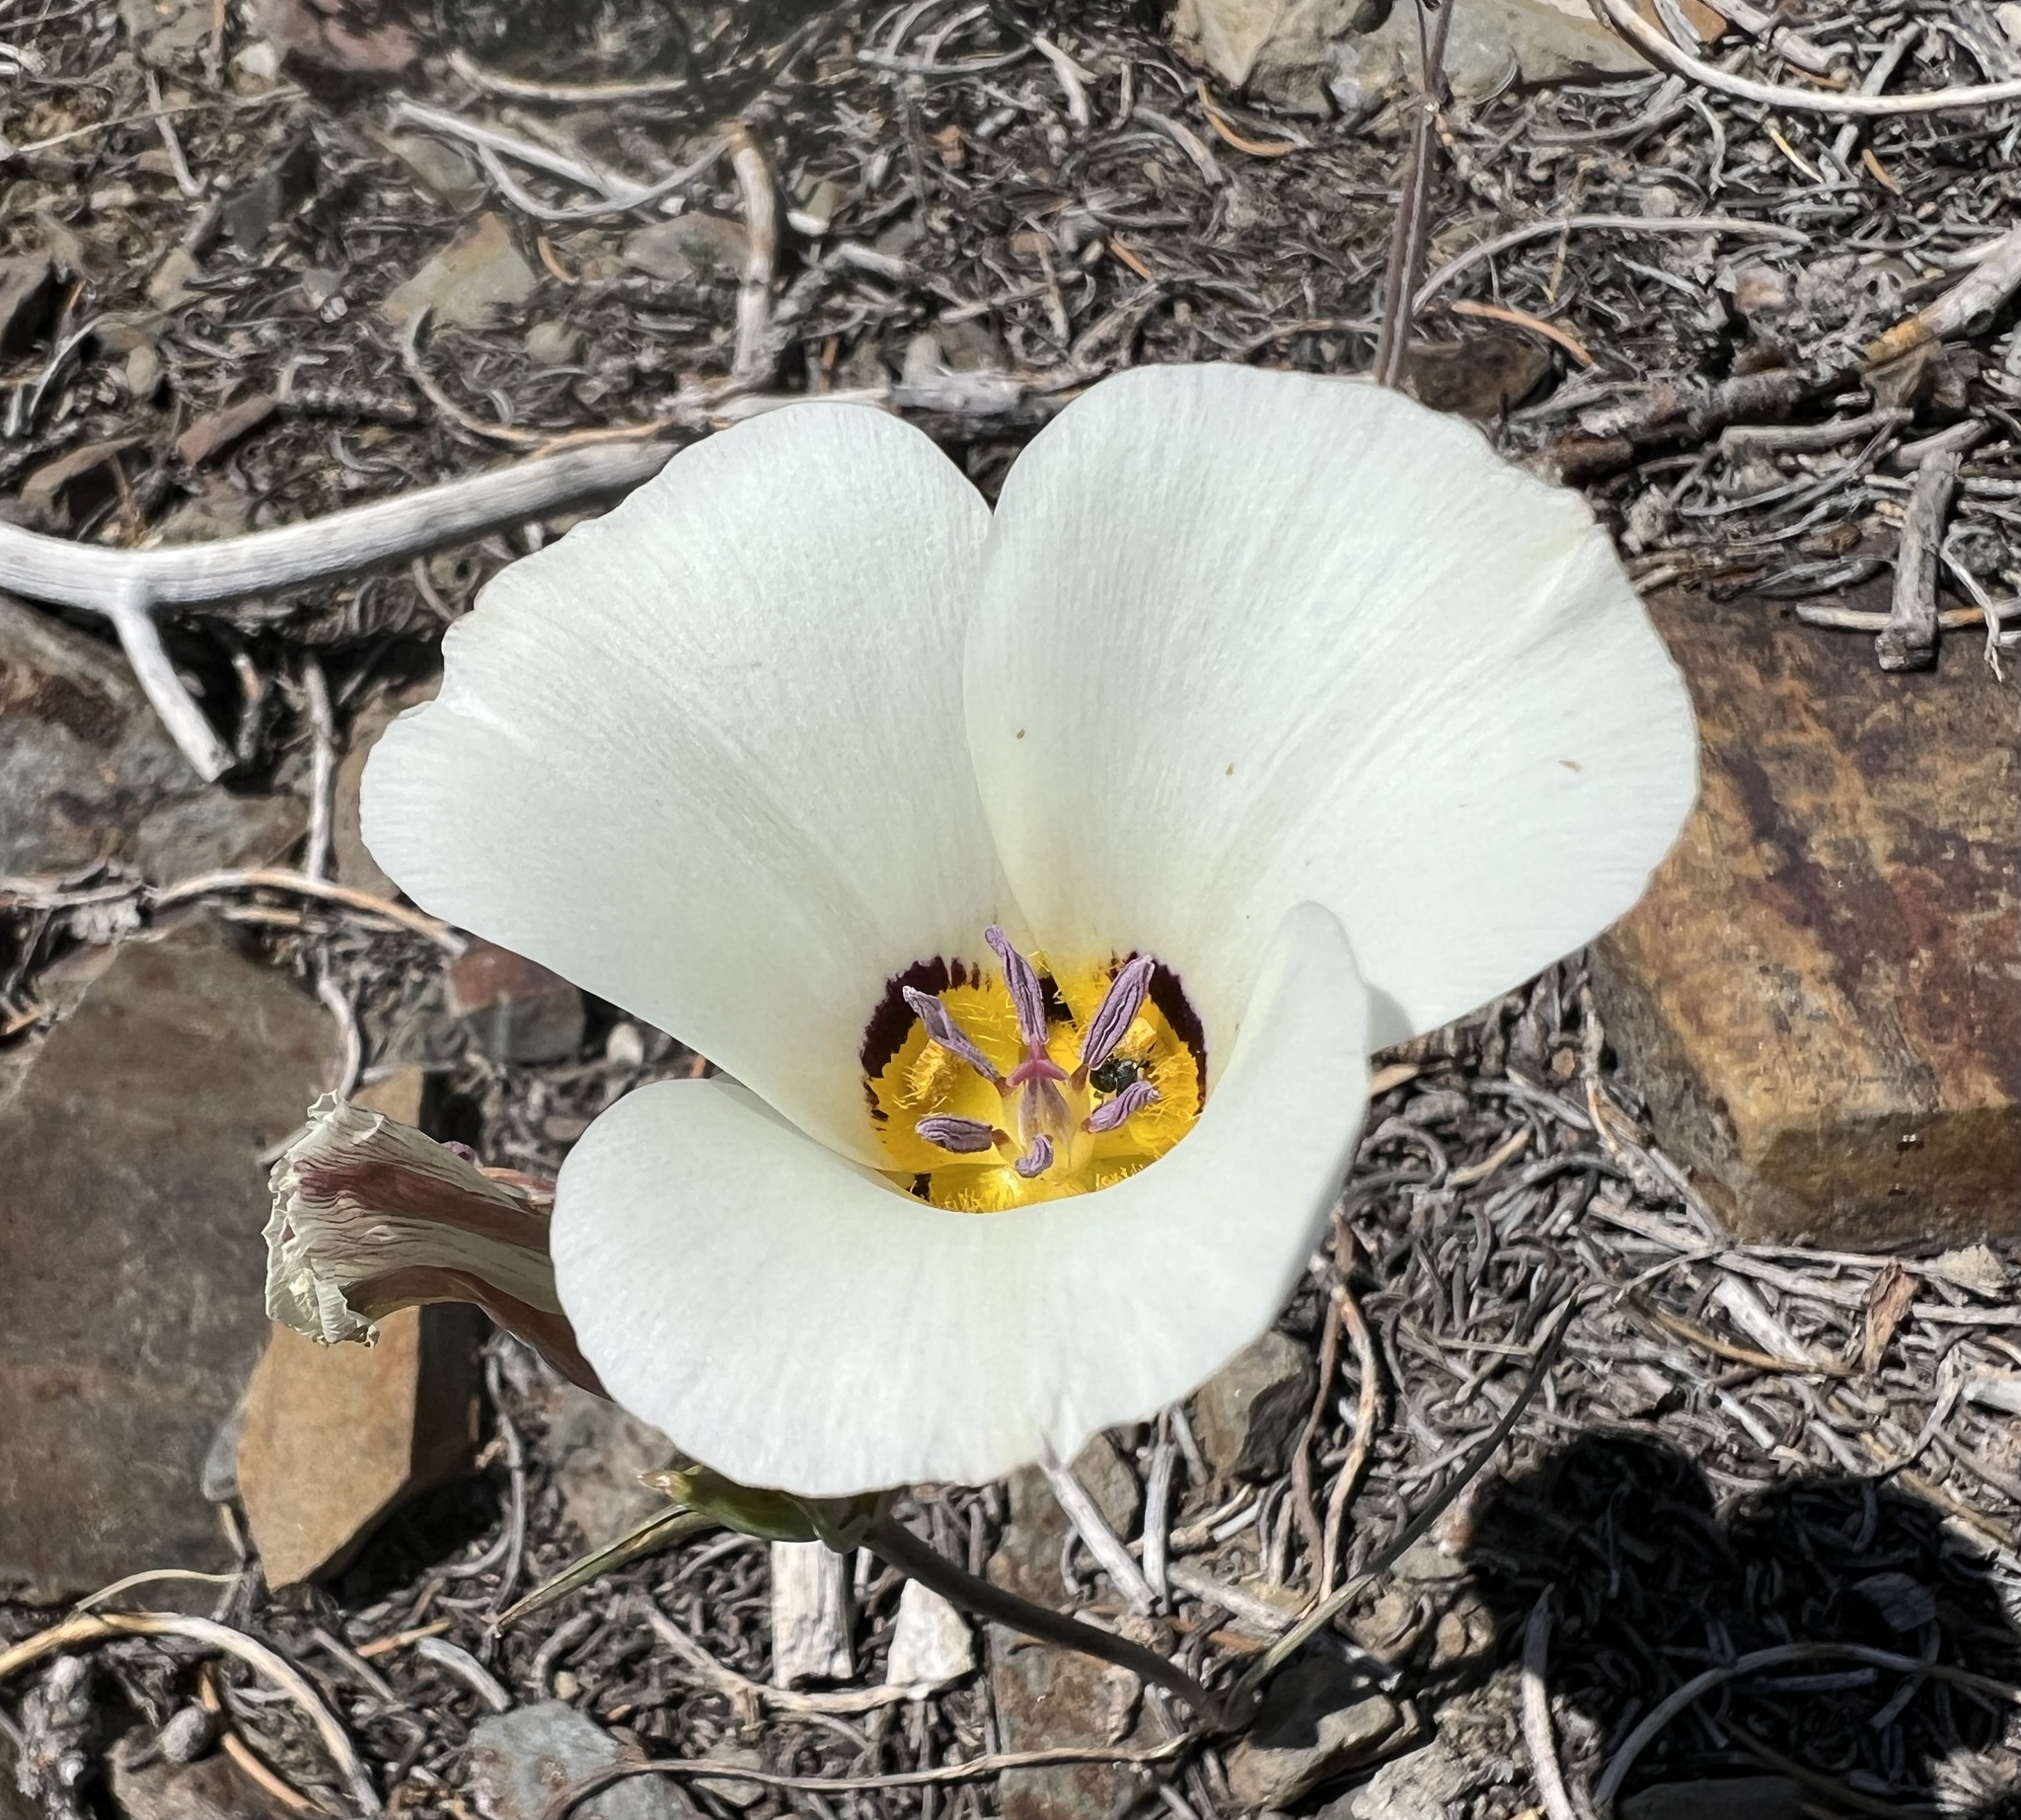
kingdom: Plantae
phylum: Tracheophyta
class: Liliopsida
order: Liliales
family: Liliaceae
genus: Calochortus
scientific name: Calochortus bruneaunis
